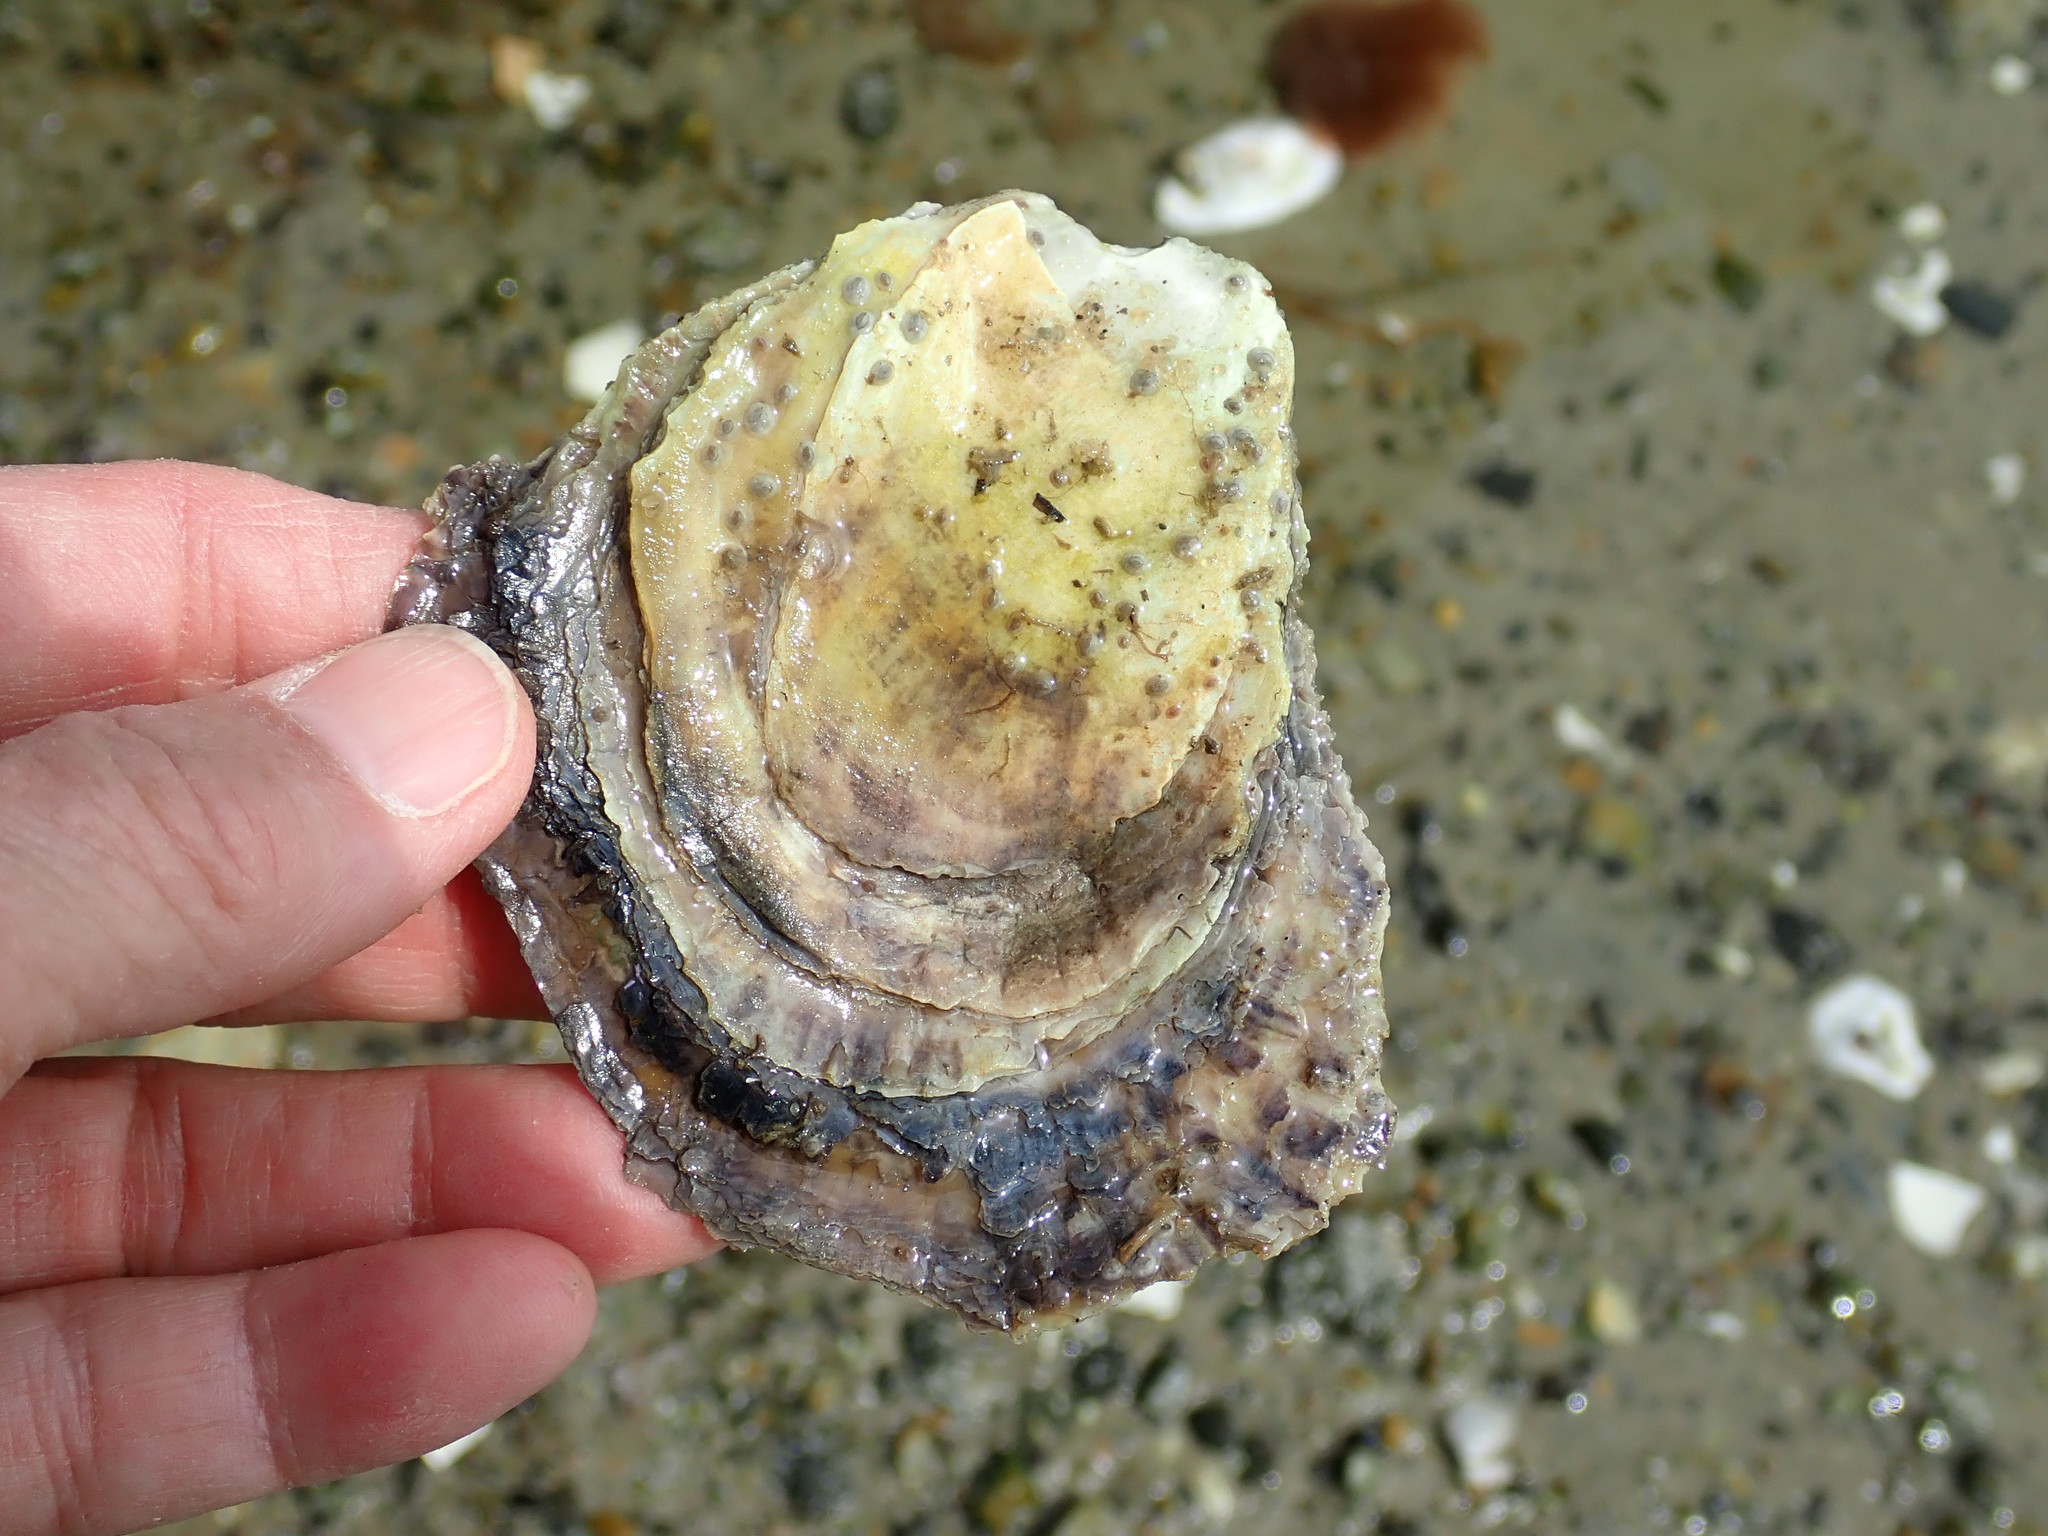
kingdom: Animalia
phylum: Mollusca
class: Bivalvia
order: Ostreida
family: Ostreidae
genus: Crassostrea
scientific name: Crassostrea virginica
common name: American oyster
